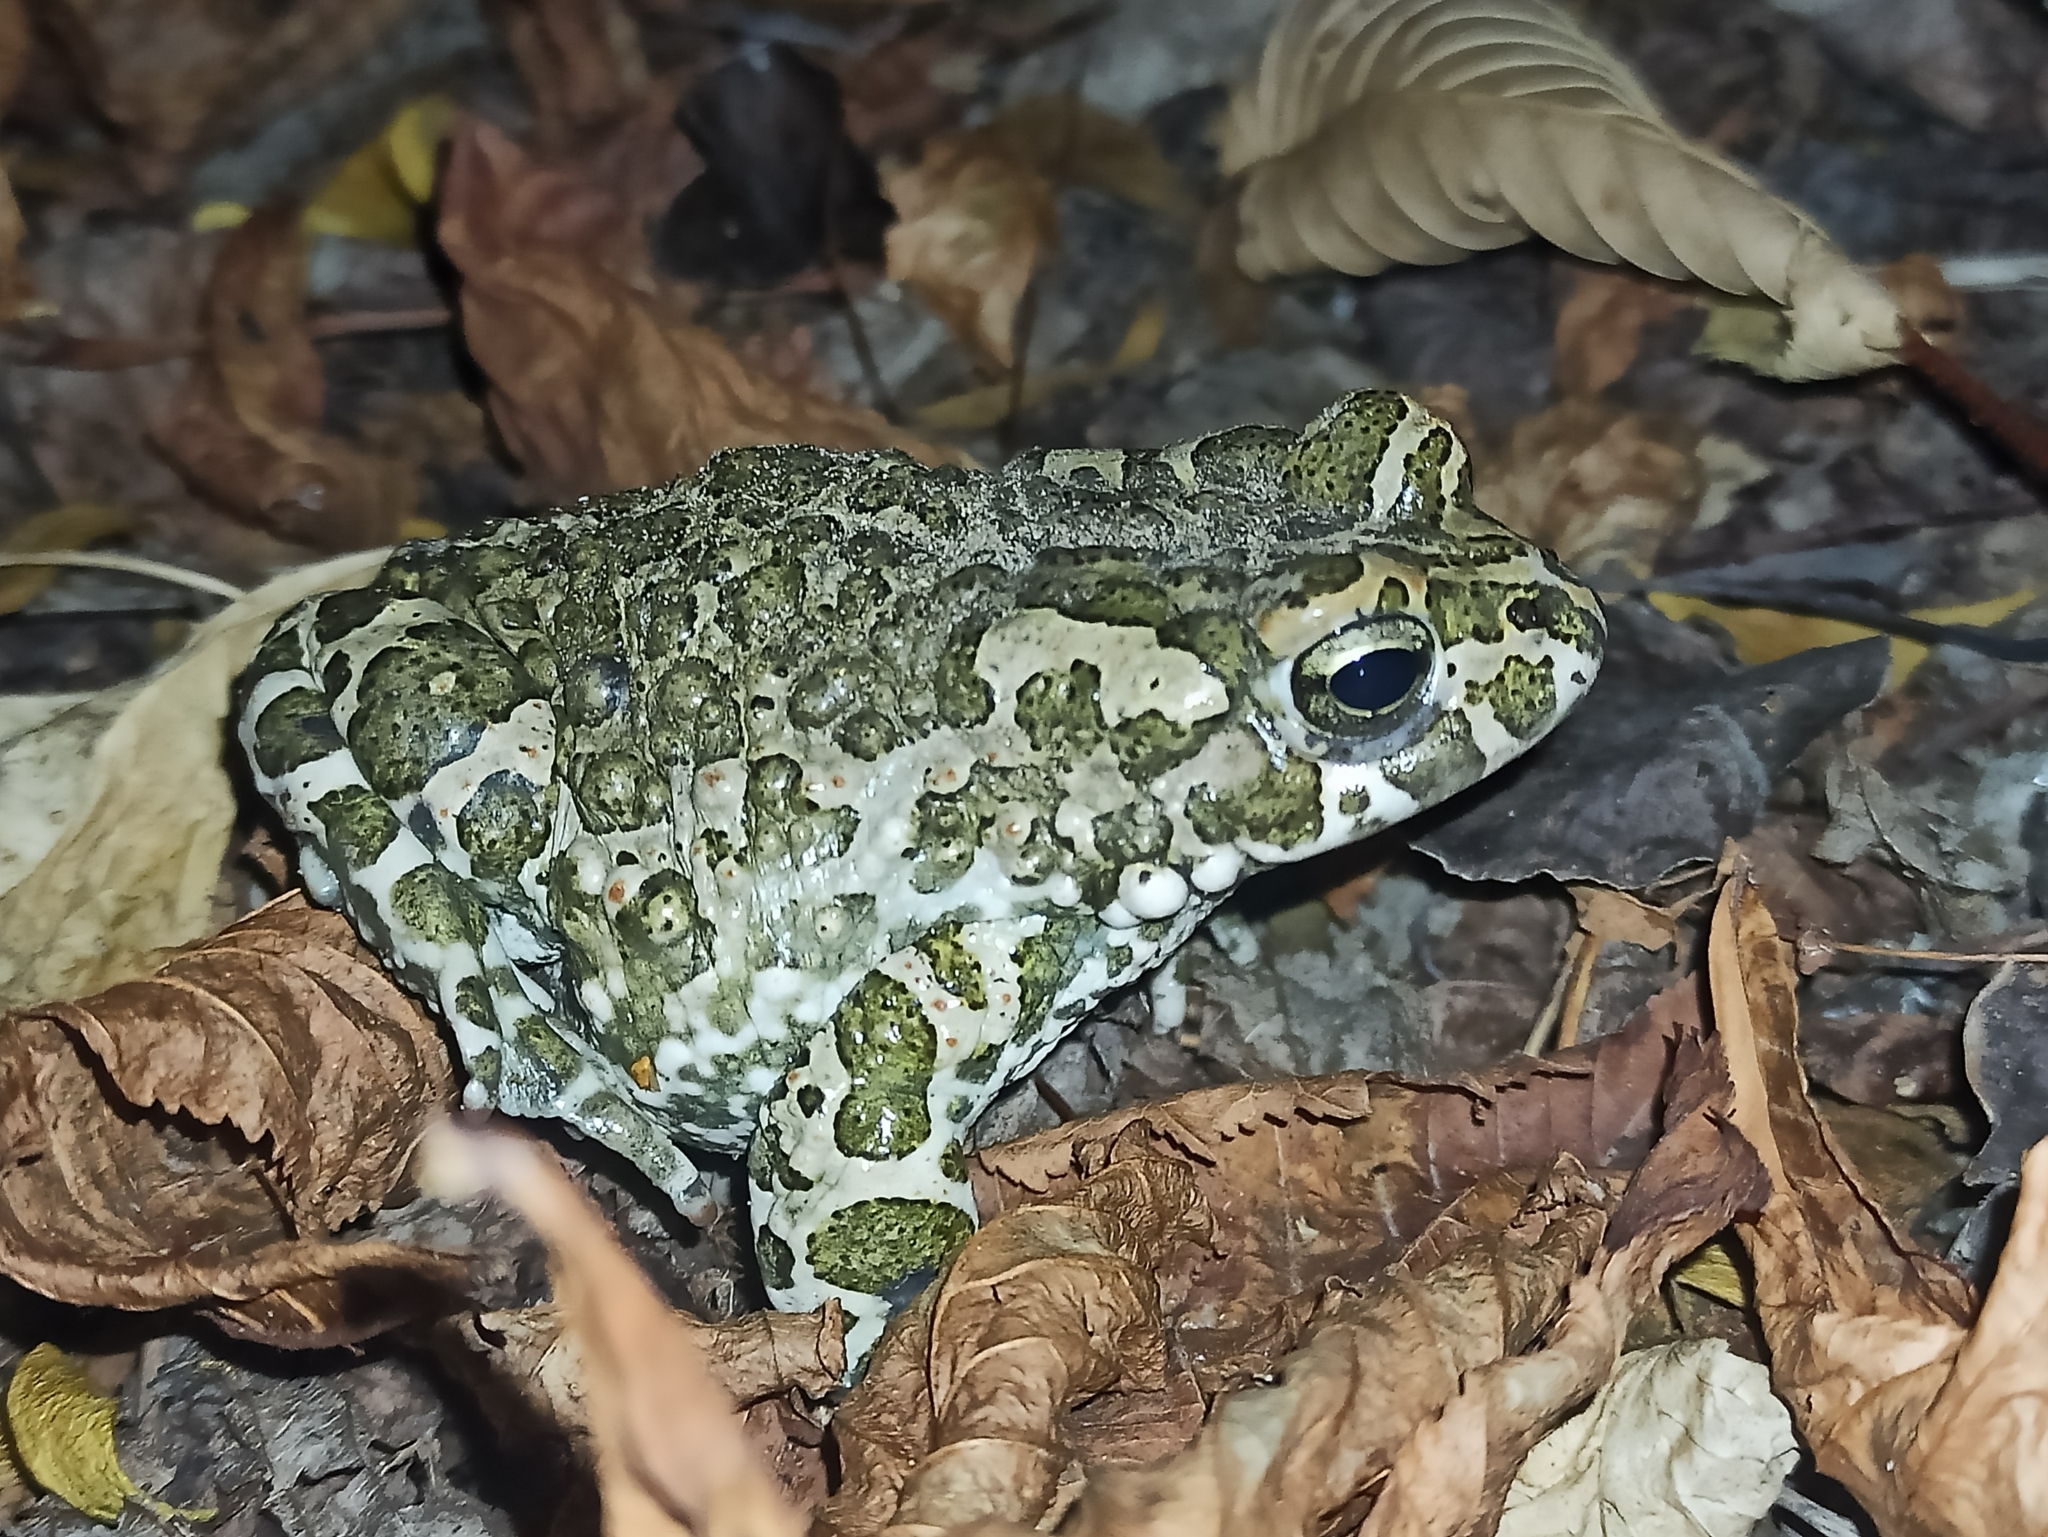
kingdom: Animalia
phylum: Chordata
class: Amphibia
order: Anura
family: Bufonidae
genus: Bufotes
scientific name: Bufotes viridis
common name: European green toad
